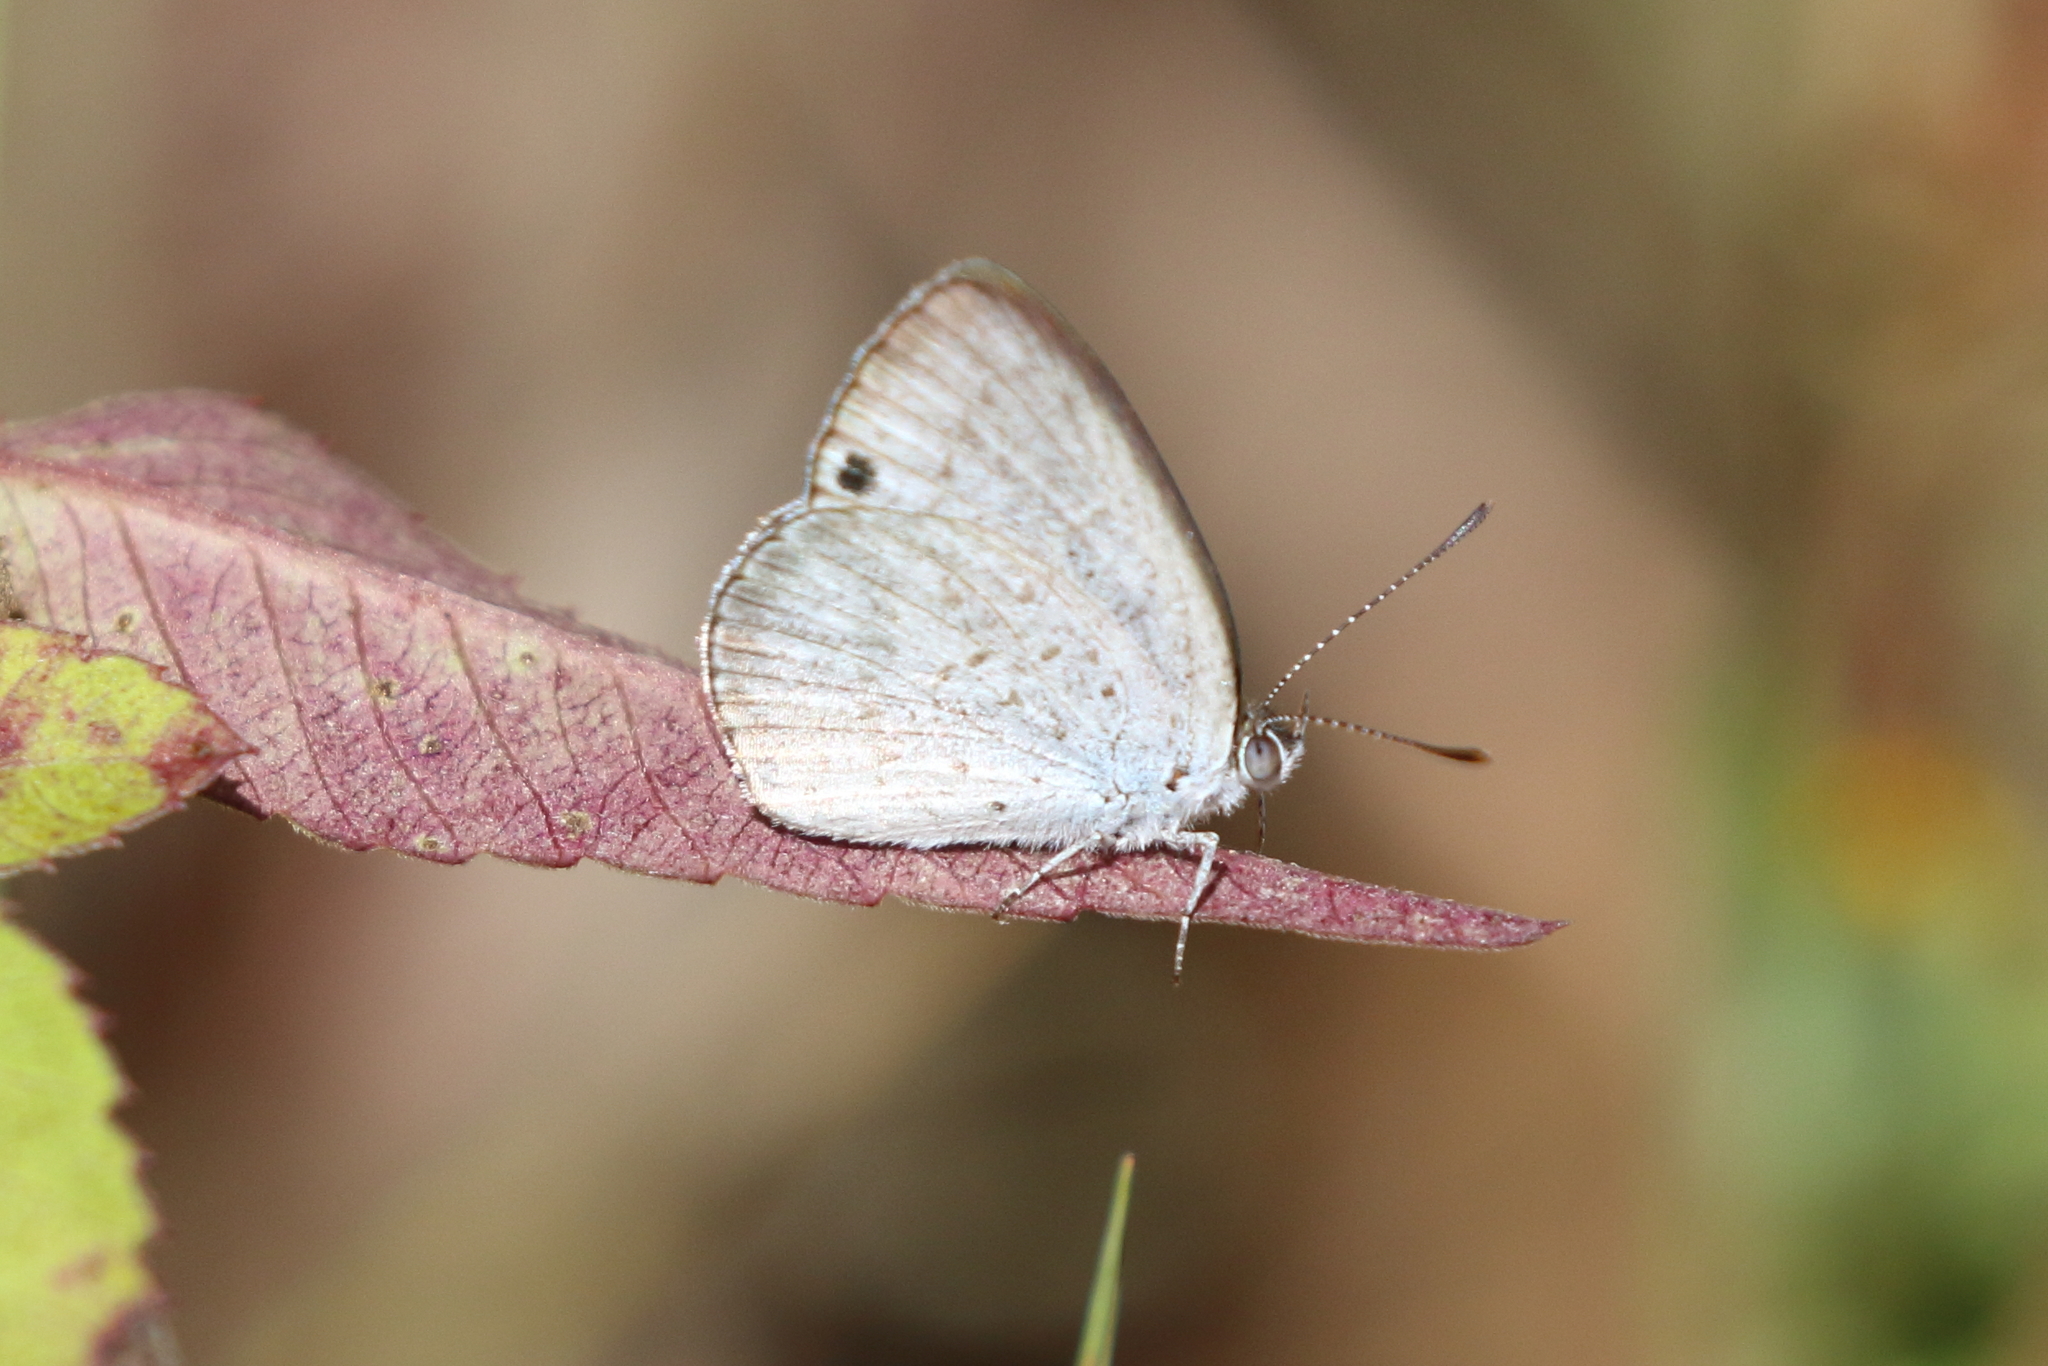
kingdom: Animalia
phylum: Arthropoda
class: Insecta
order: Lepidoptera
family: Lycaenidae
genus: Candalides
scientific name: Candalides
